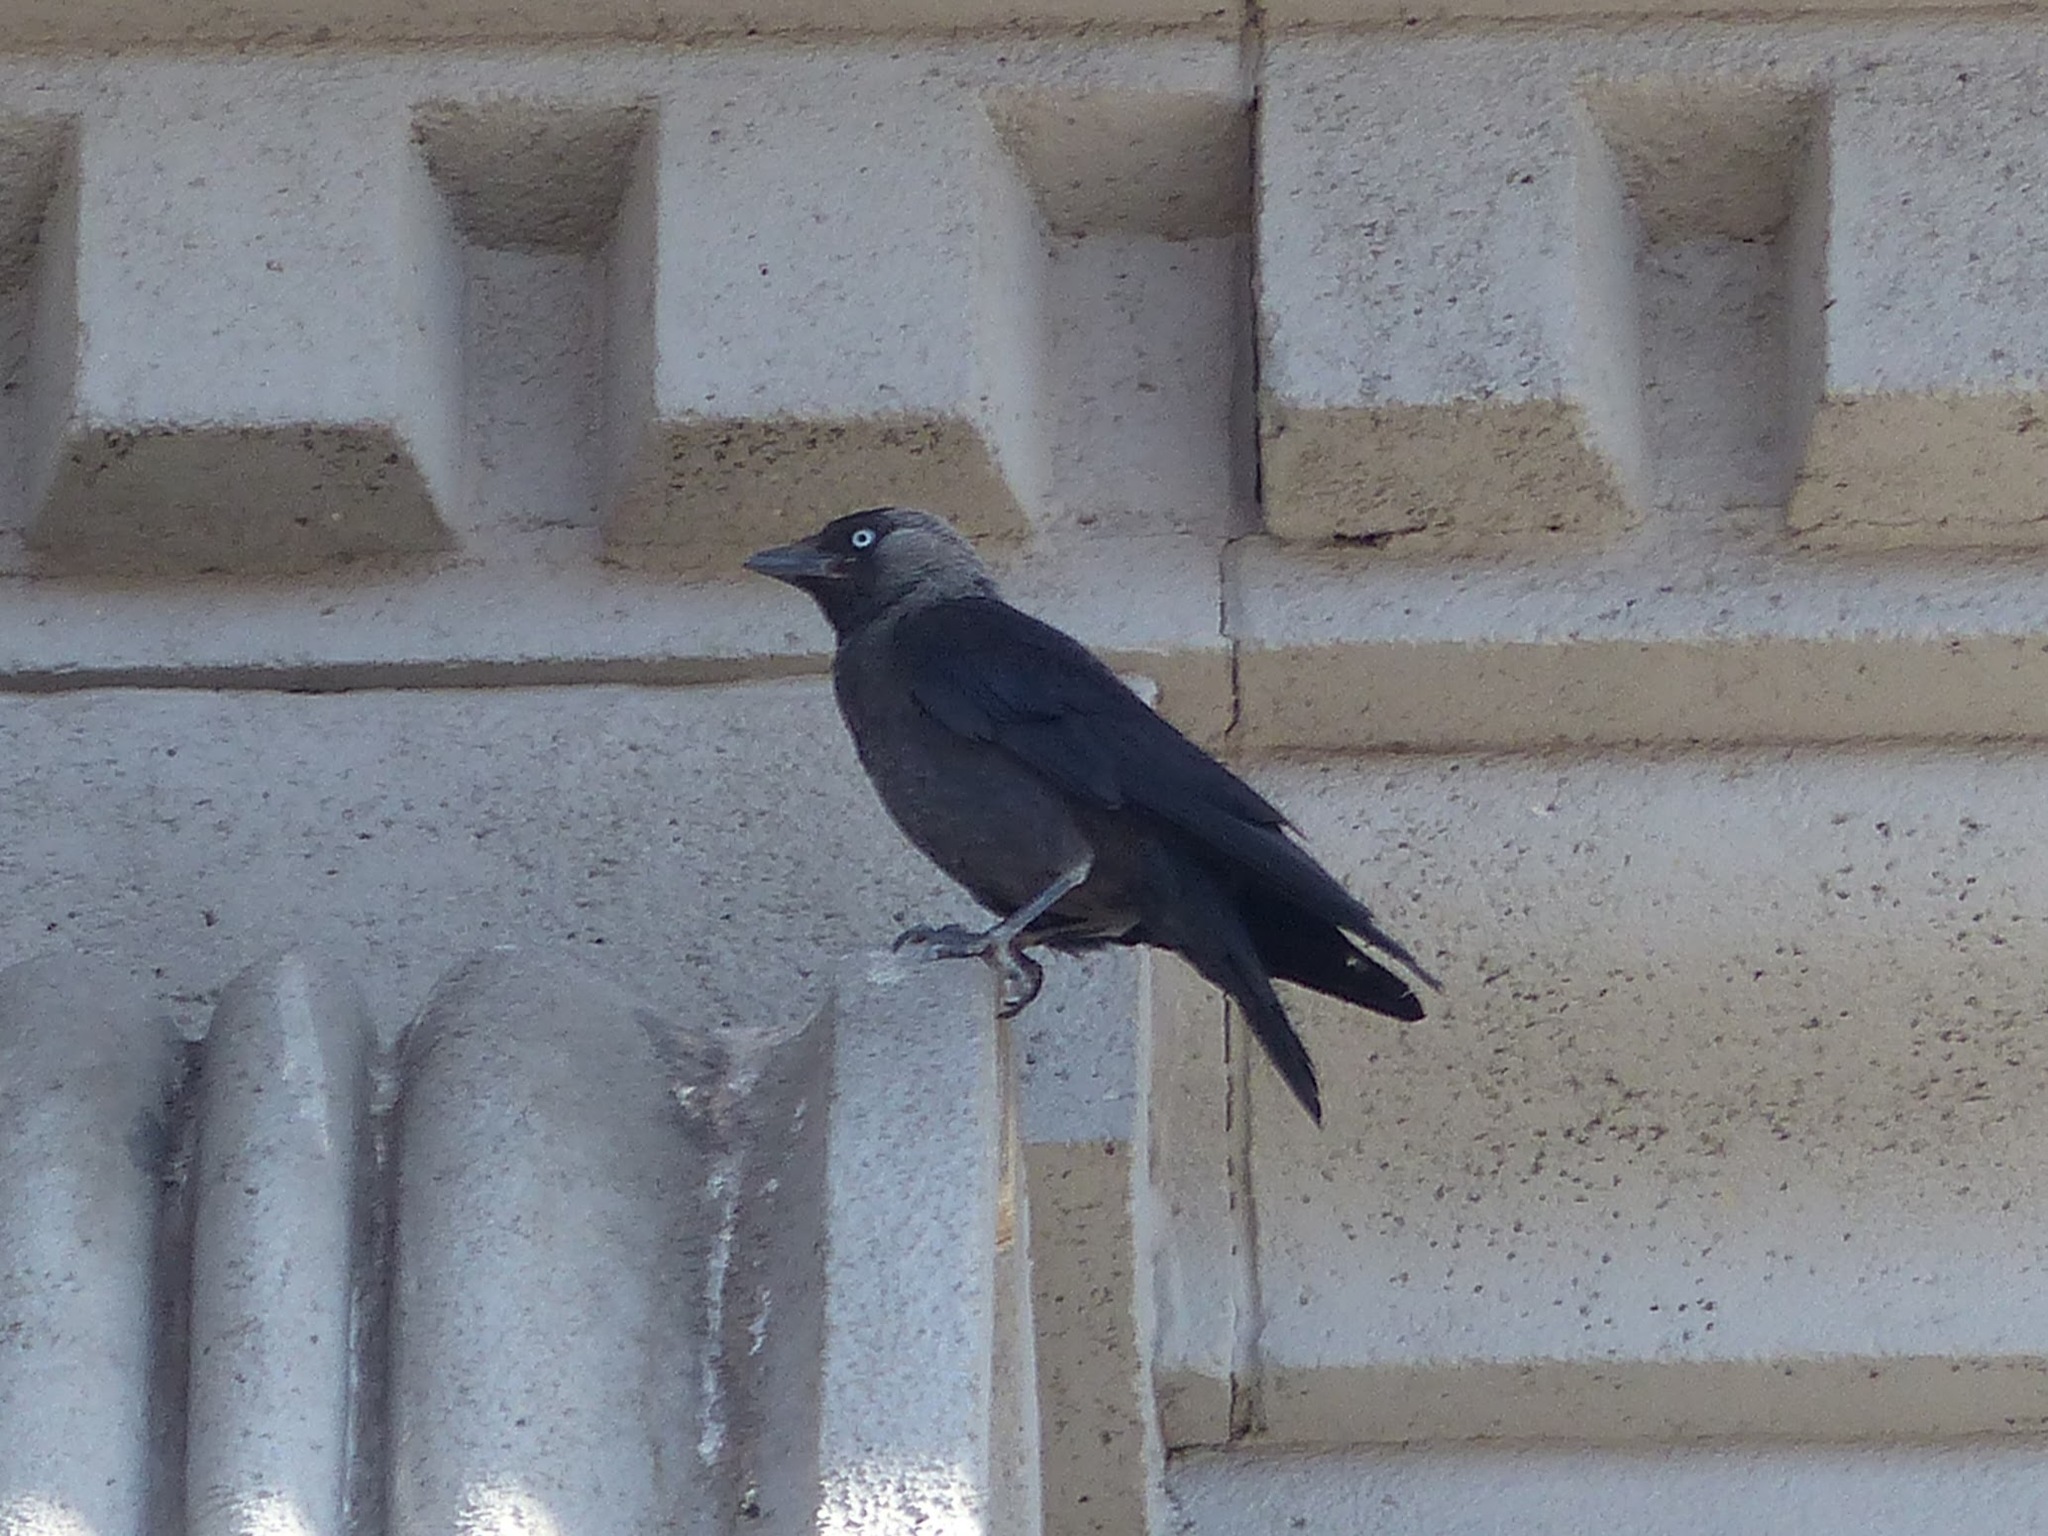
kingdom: Animalia
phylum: Chordata
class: Aves
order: Passeriformes
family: Corvidae
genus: Coloeus
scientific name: Coloeus monedula
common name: Western jackdaw
